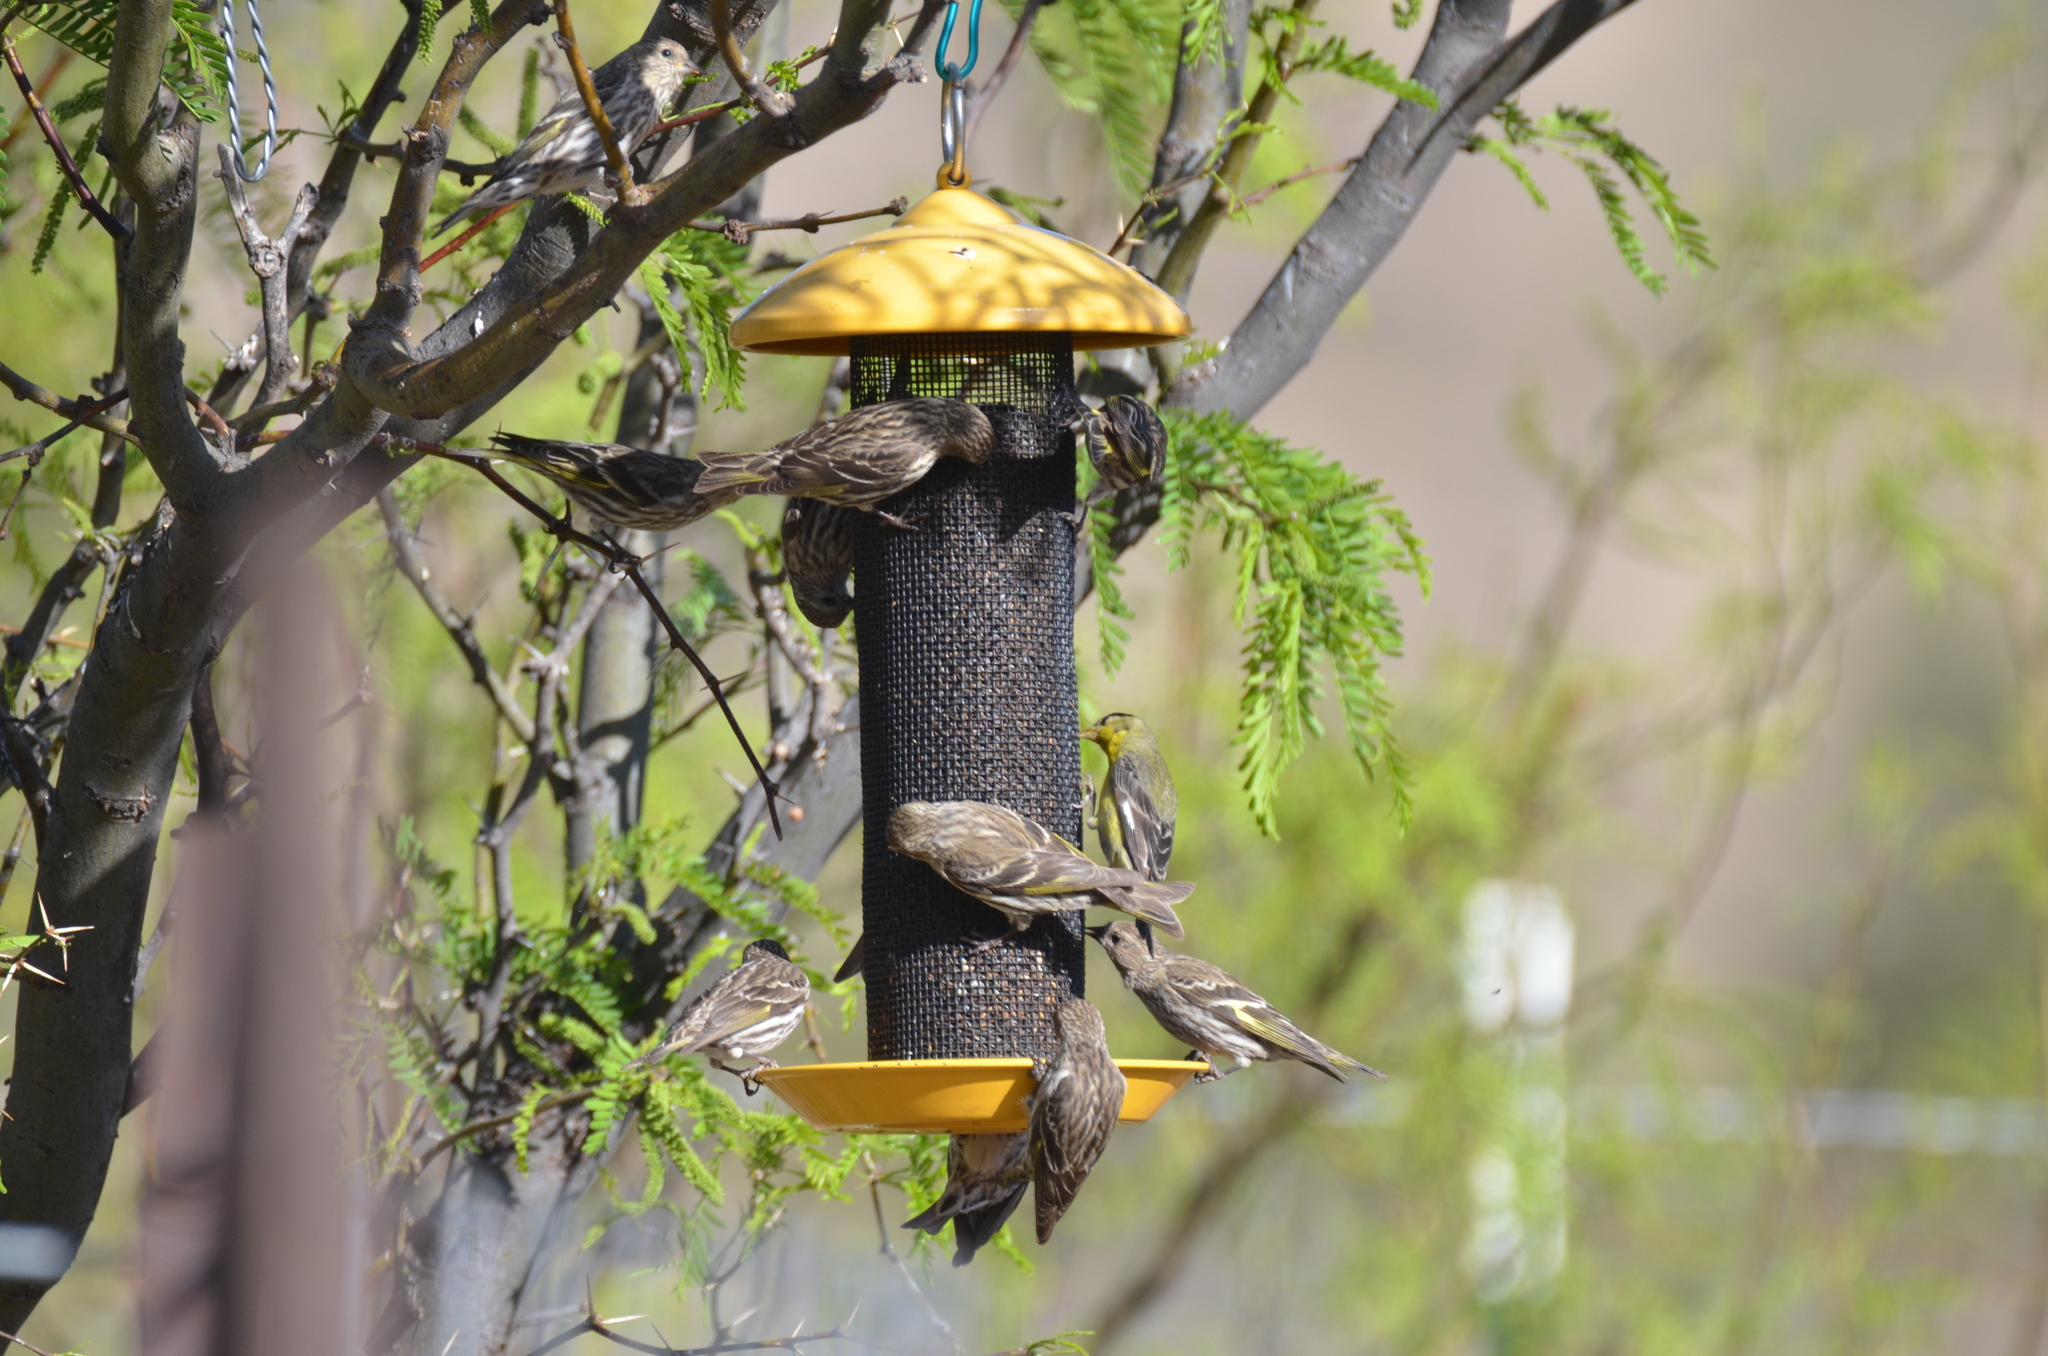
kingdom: Animalia
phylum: Chordata
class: Aves
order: Passeriformes
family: Fringillidae
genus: Spinus
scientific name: Spinus pinus
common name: Pine siskin
